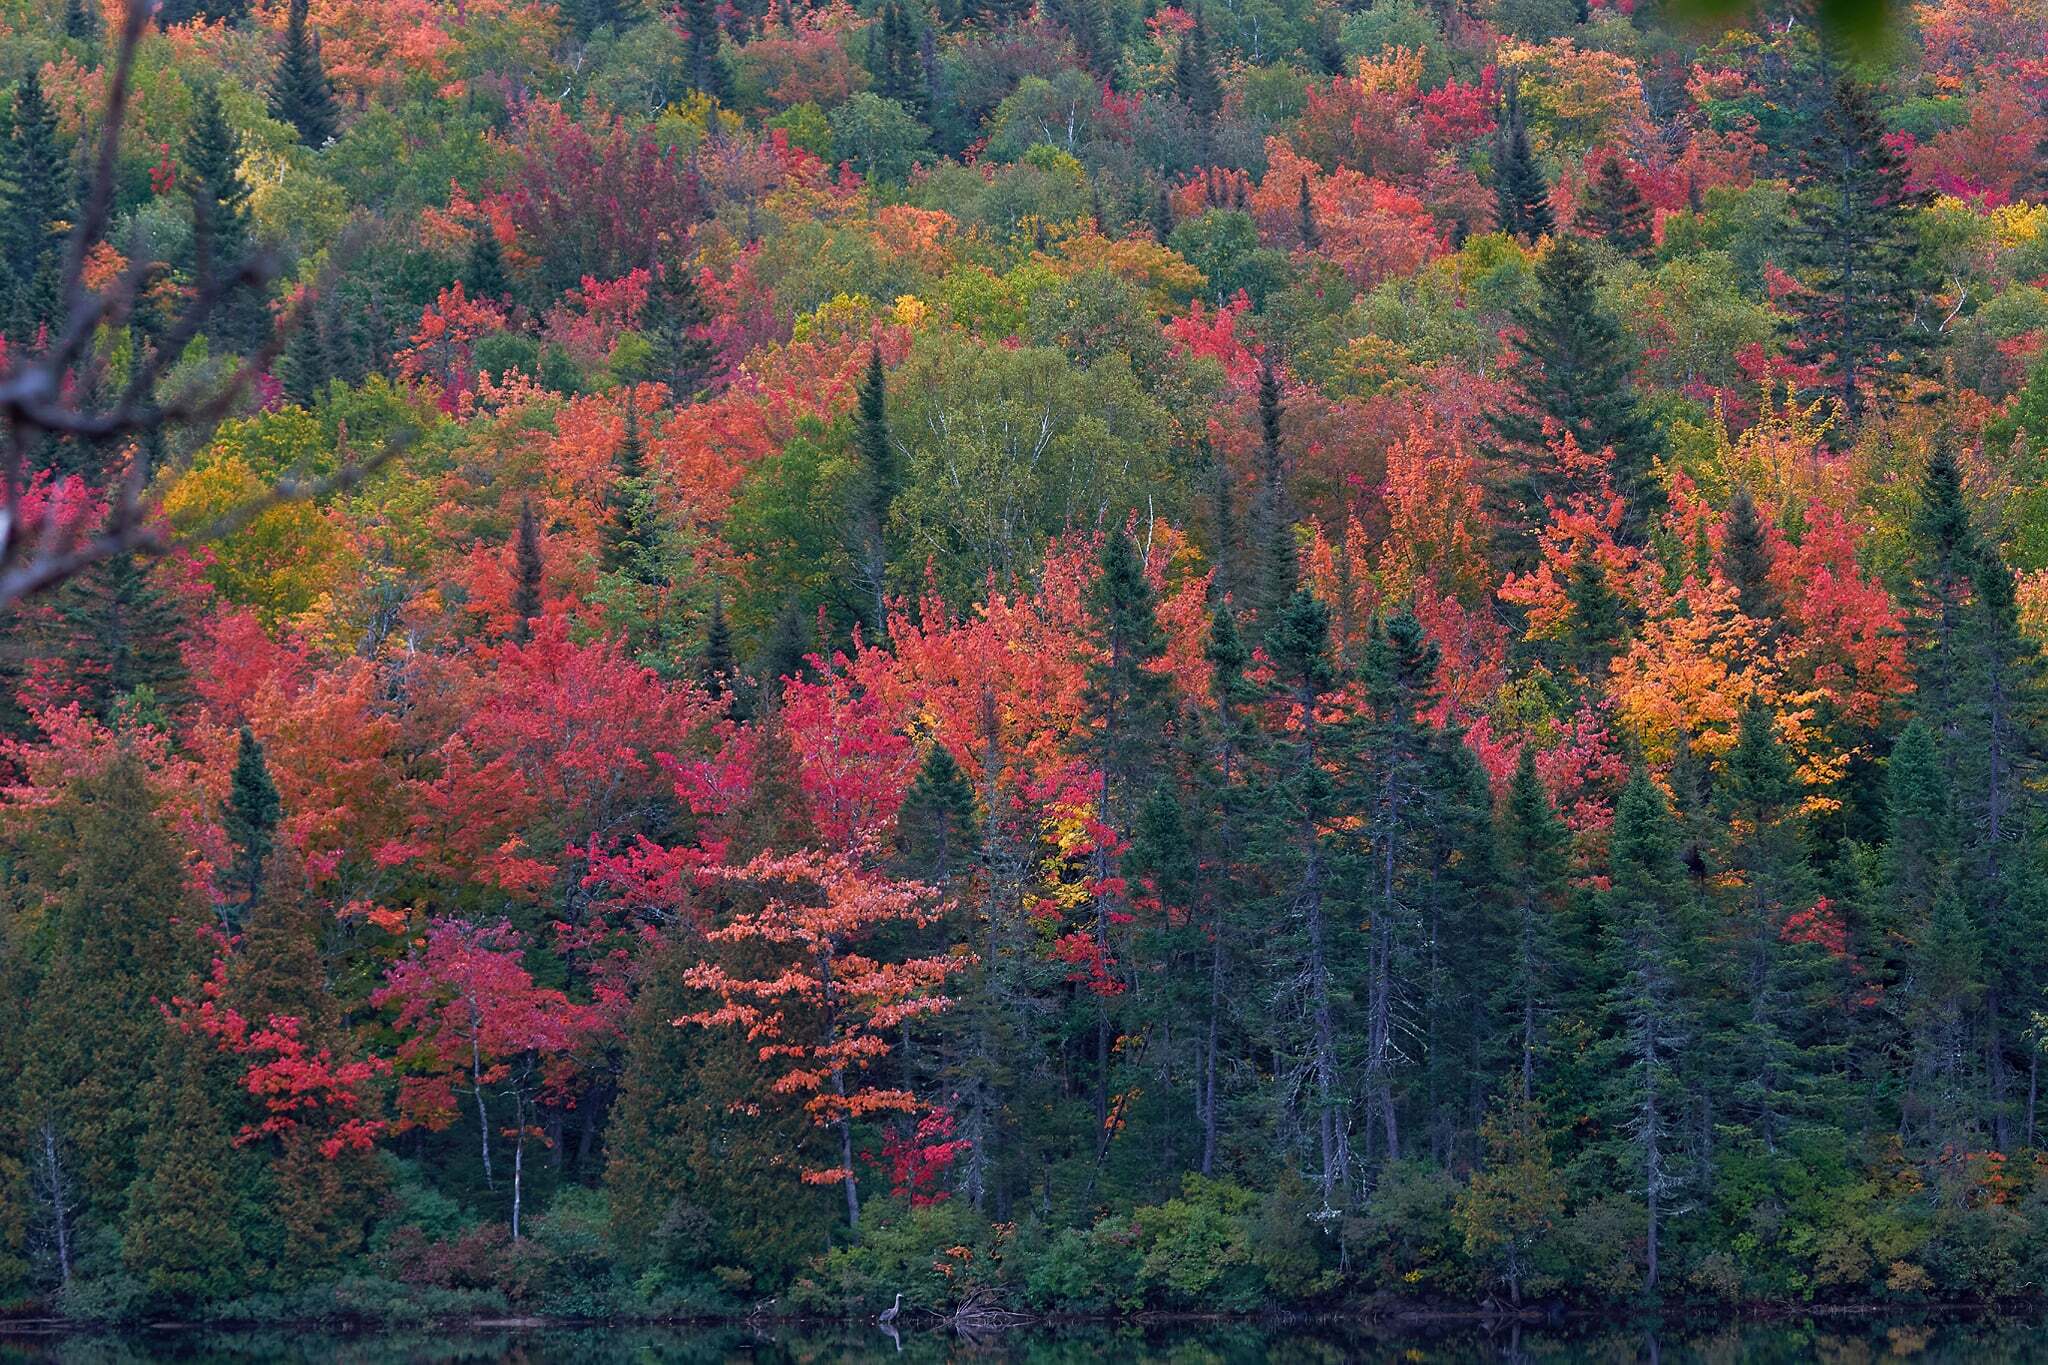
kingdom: Animalia
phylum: Chordata
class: Aves
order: Pelecaniformes
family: Ardeidae
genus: Ardea
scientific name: Ardea herodias
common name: Great blue heron
